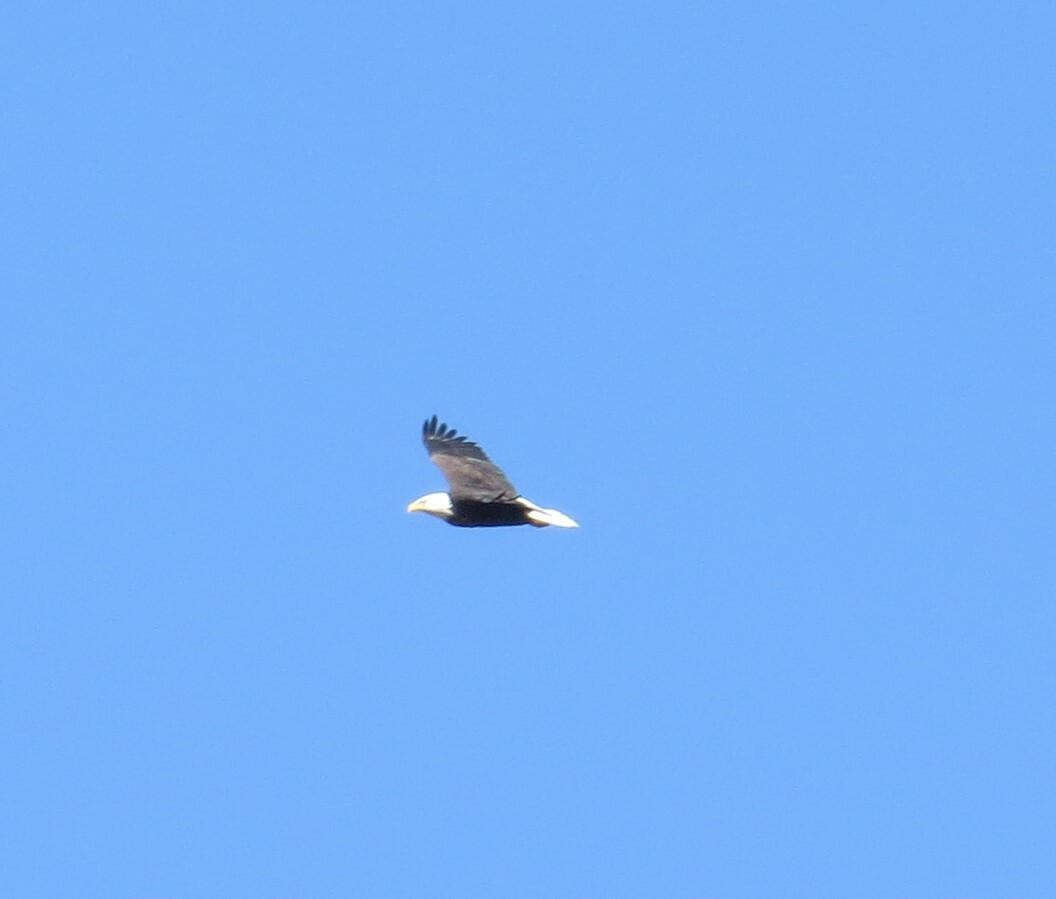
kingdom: Animalia
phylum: Chordata
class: Aves
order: Accipitriformes
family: Accipitridae
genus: Haliaeetus
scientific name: Haliaeetus leucocephalus
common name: Bald eagle
